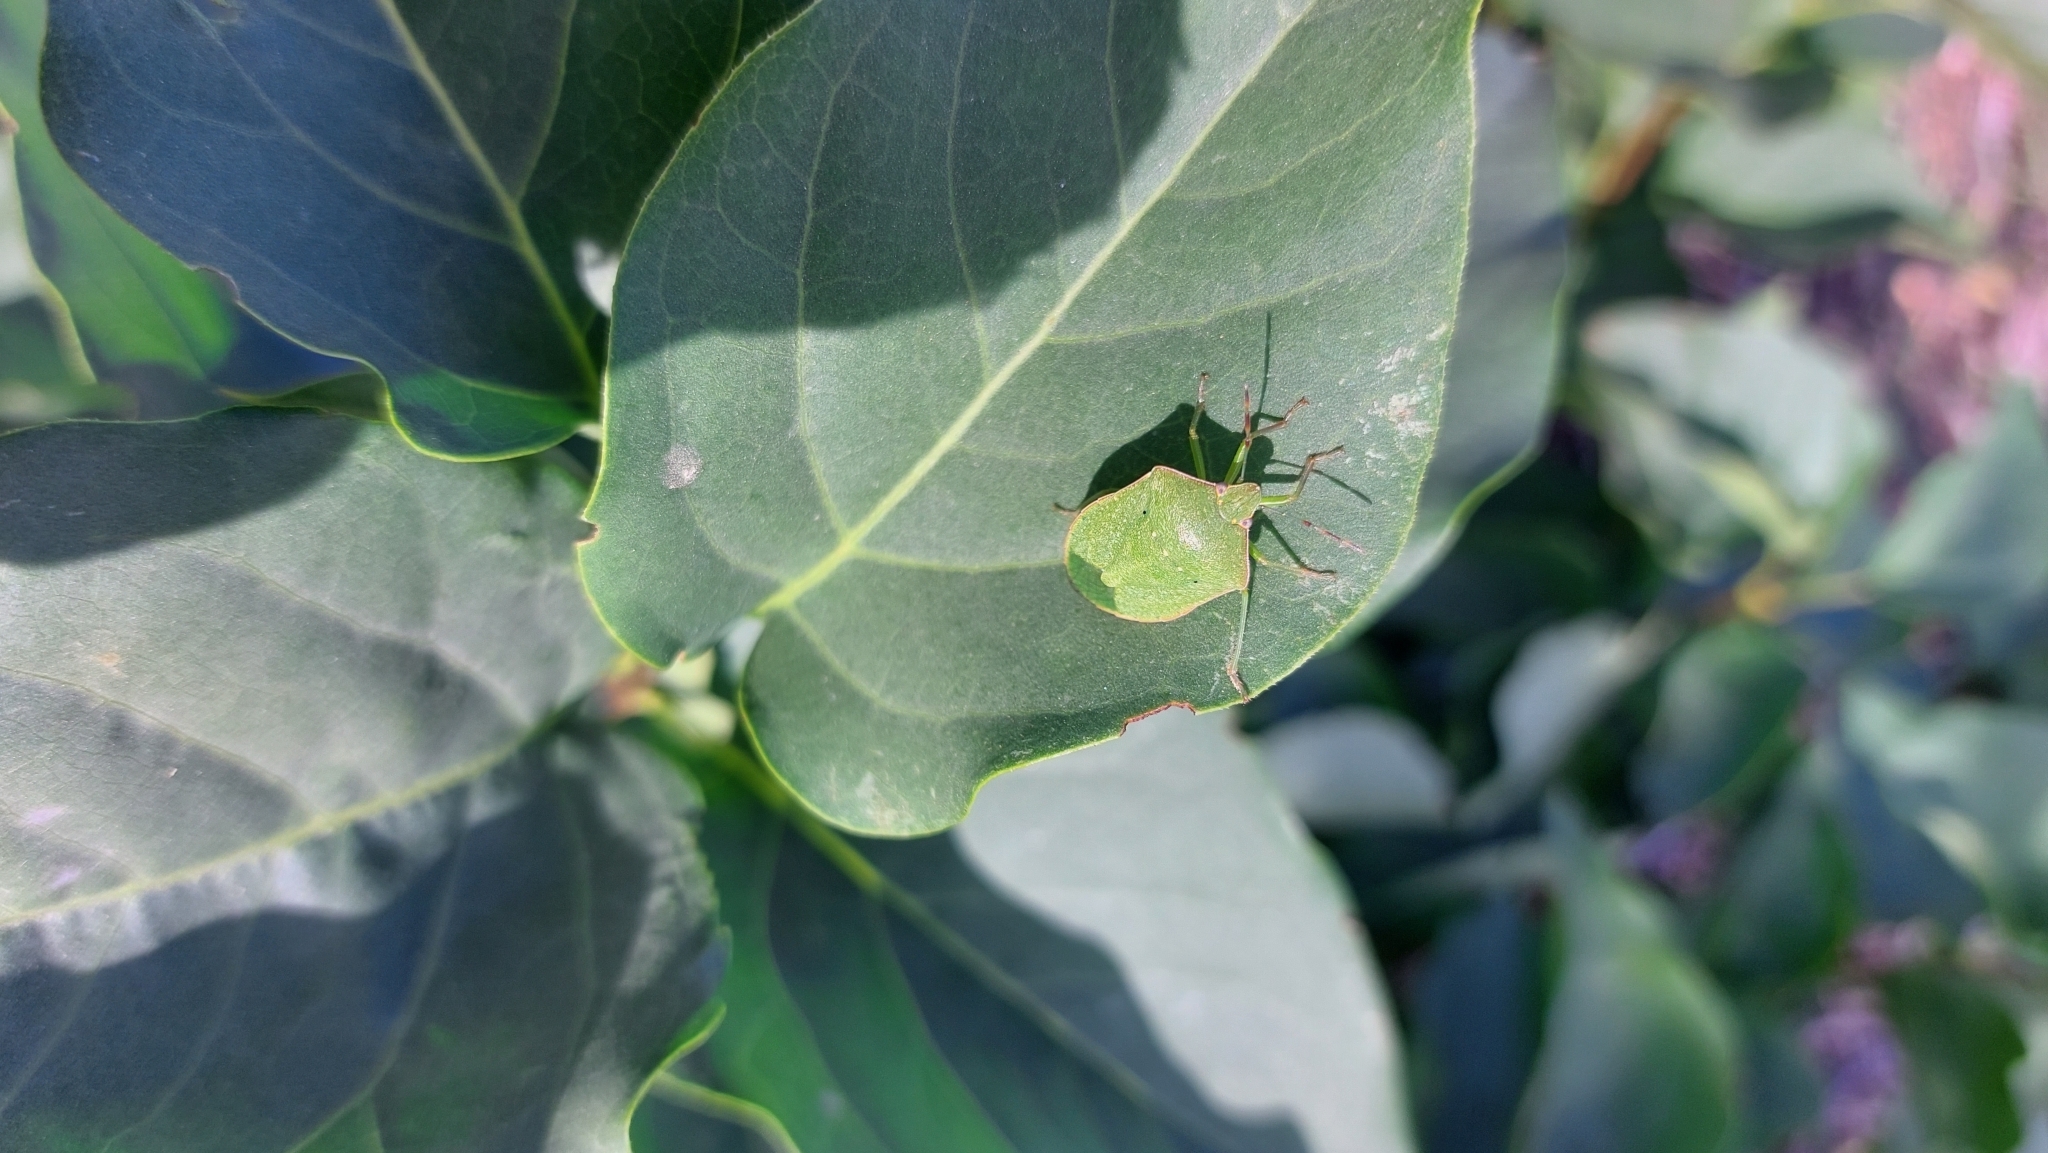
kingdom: Animalia
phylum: Arthropoda
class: Insecta
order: Hemiptera
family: Pentatomidae
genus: Nezara
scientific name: Nezara viridula
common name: Southern green stink bug
